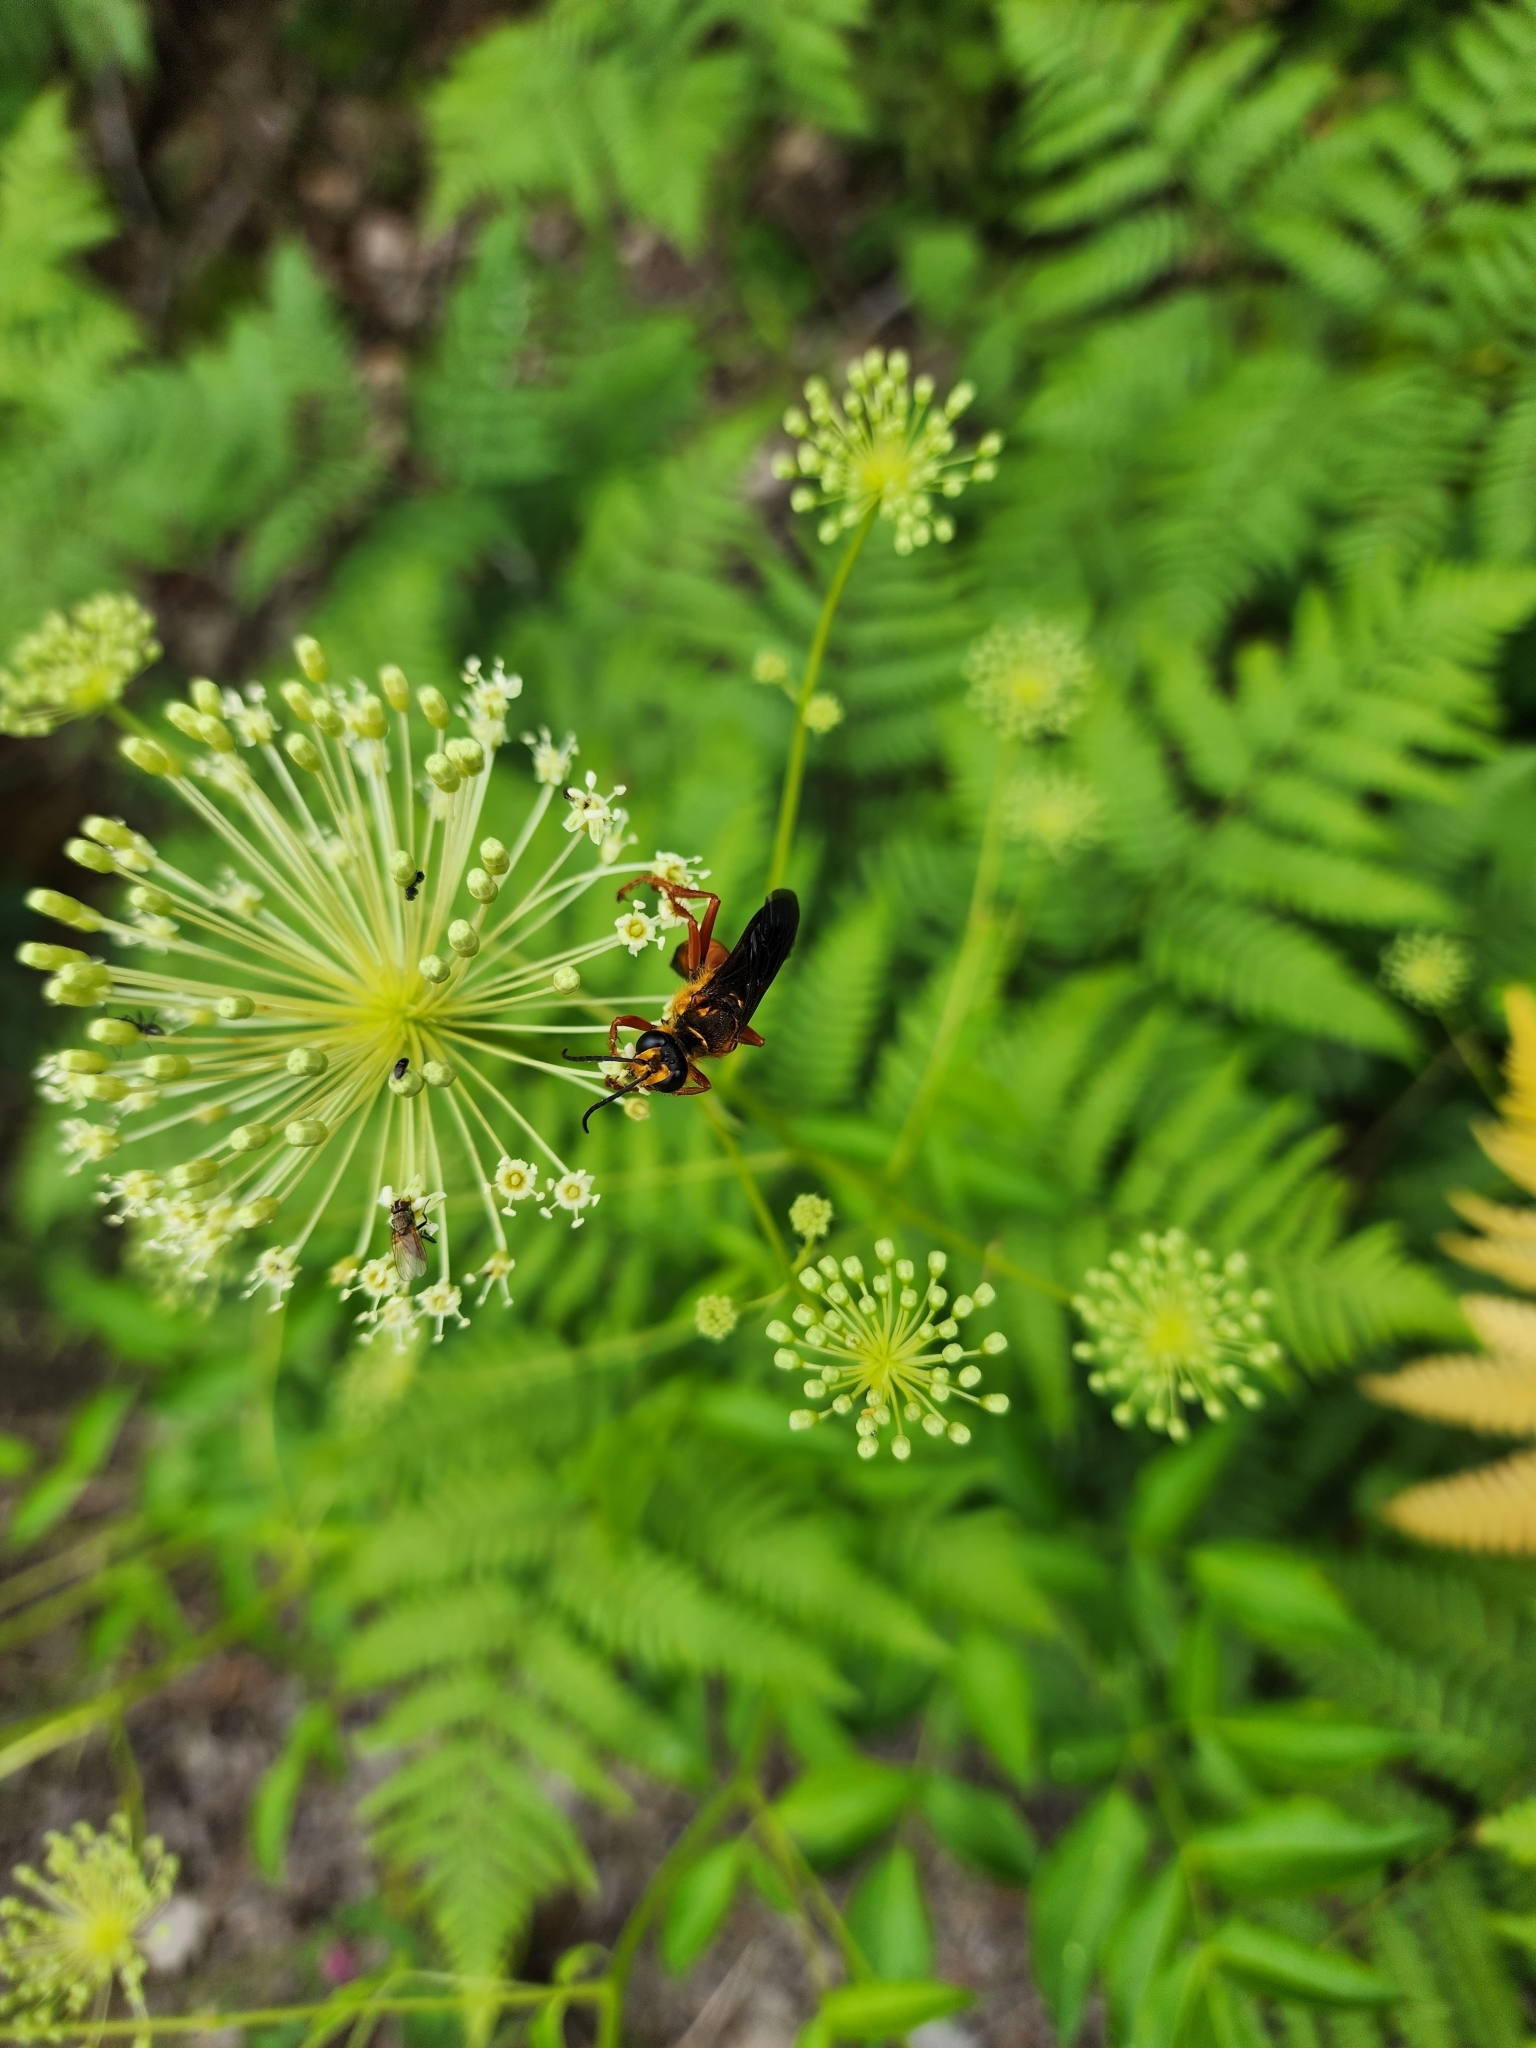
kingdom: Animalia
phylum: Arthropoda
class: Insecta
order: Hymenoptera
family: Sphecidae
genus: Sphex
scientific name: Sphex ichneumoneus
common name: Great golden digger wasp
